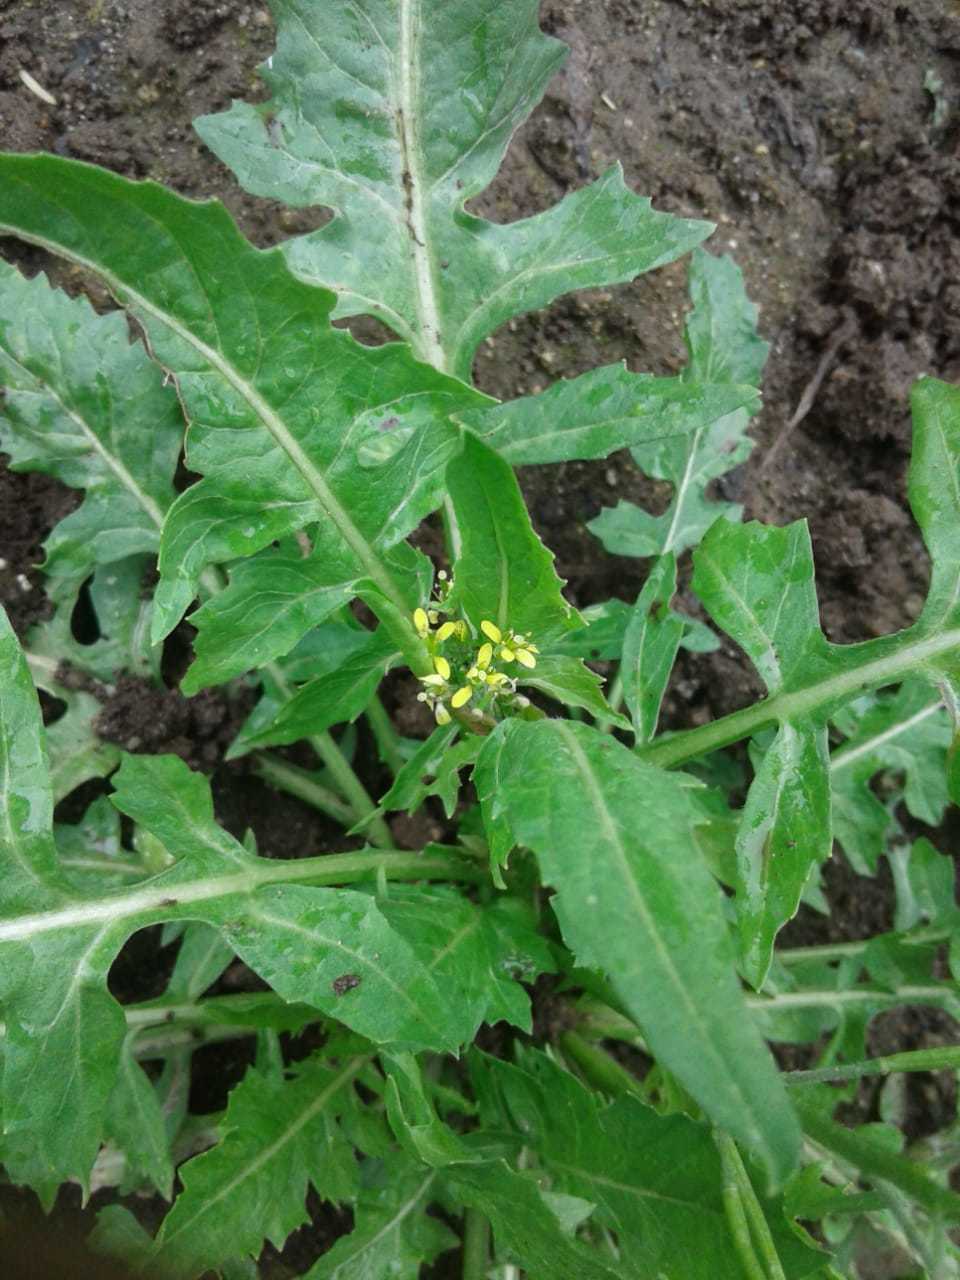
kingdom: Plantae
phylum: Tracheophyta
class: Magnoliopsida
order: Brassicales
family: Brassicaceae
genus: Sisymbrium
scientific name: Sisymbrium irio
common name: London rocket
